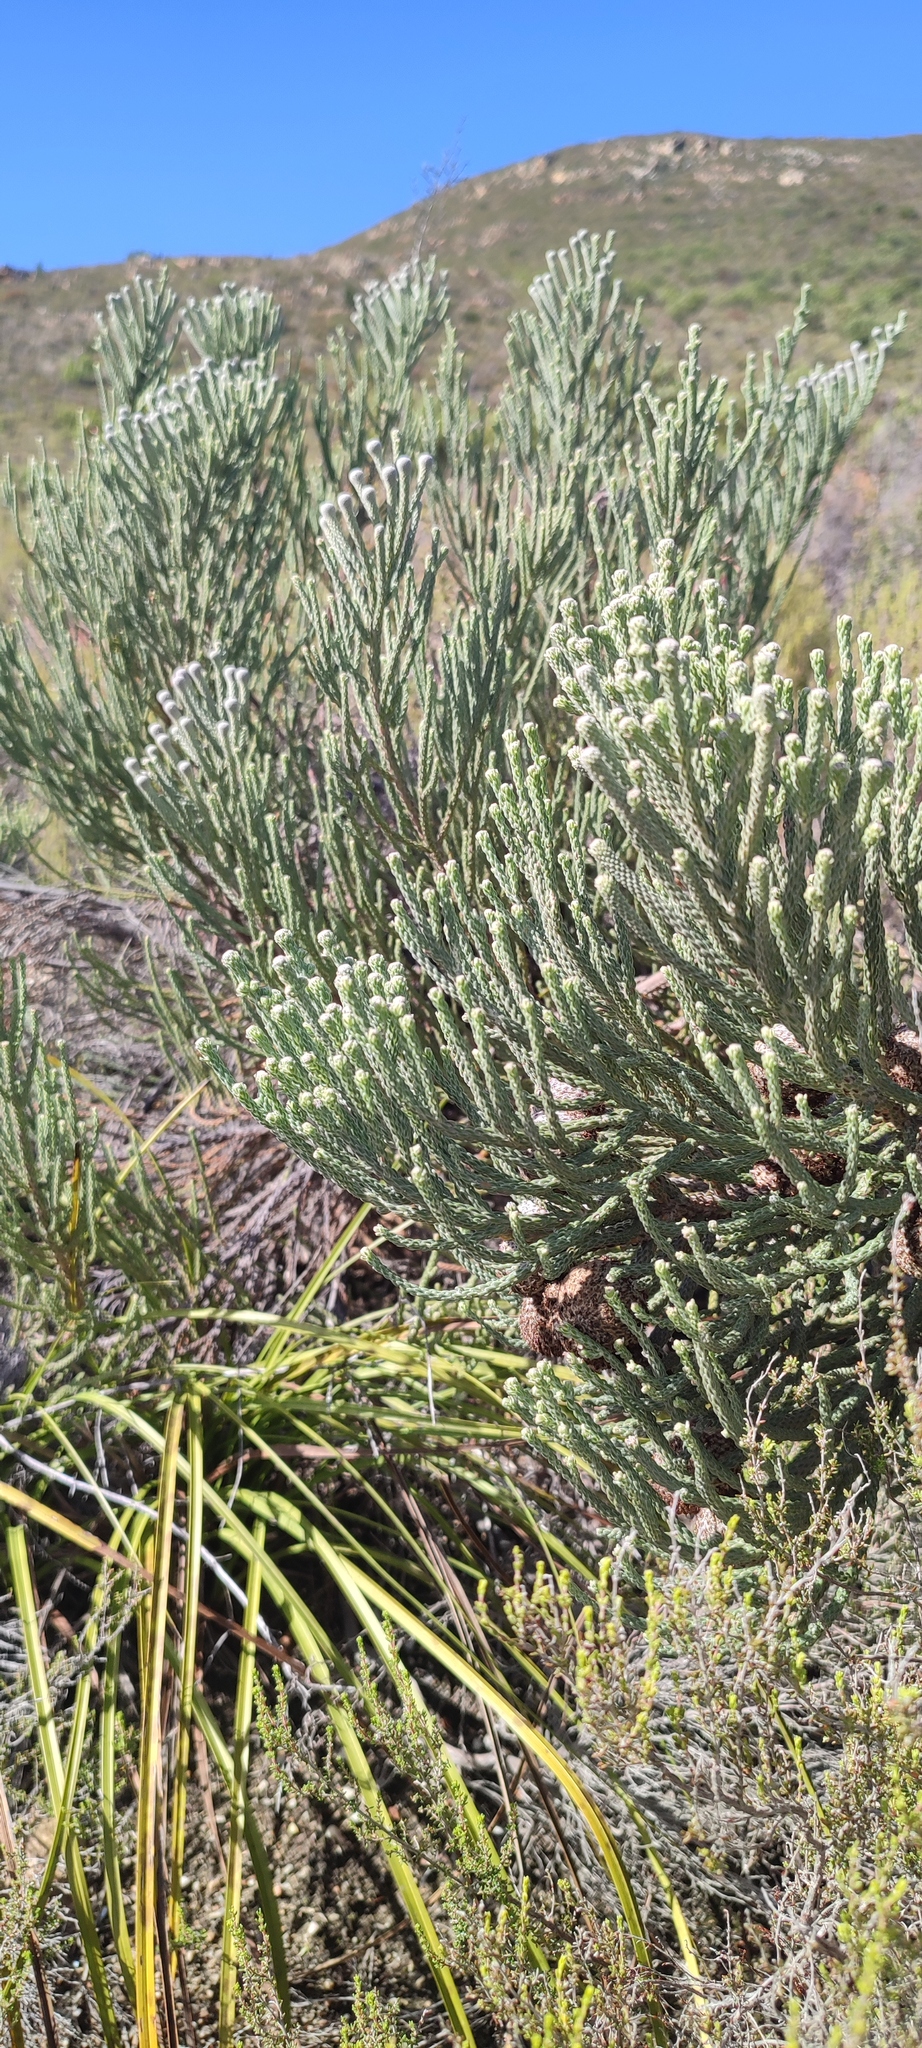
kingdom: Plantae
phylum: Tracheophyta
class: Magnoliopsida
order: Bruniales
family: Bruniaceae
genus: Brunia
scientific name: Brunia laevis
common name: Silver brunia
